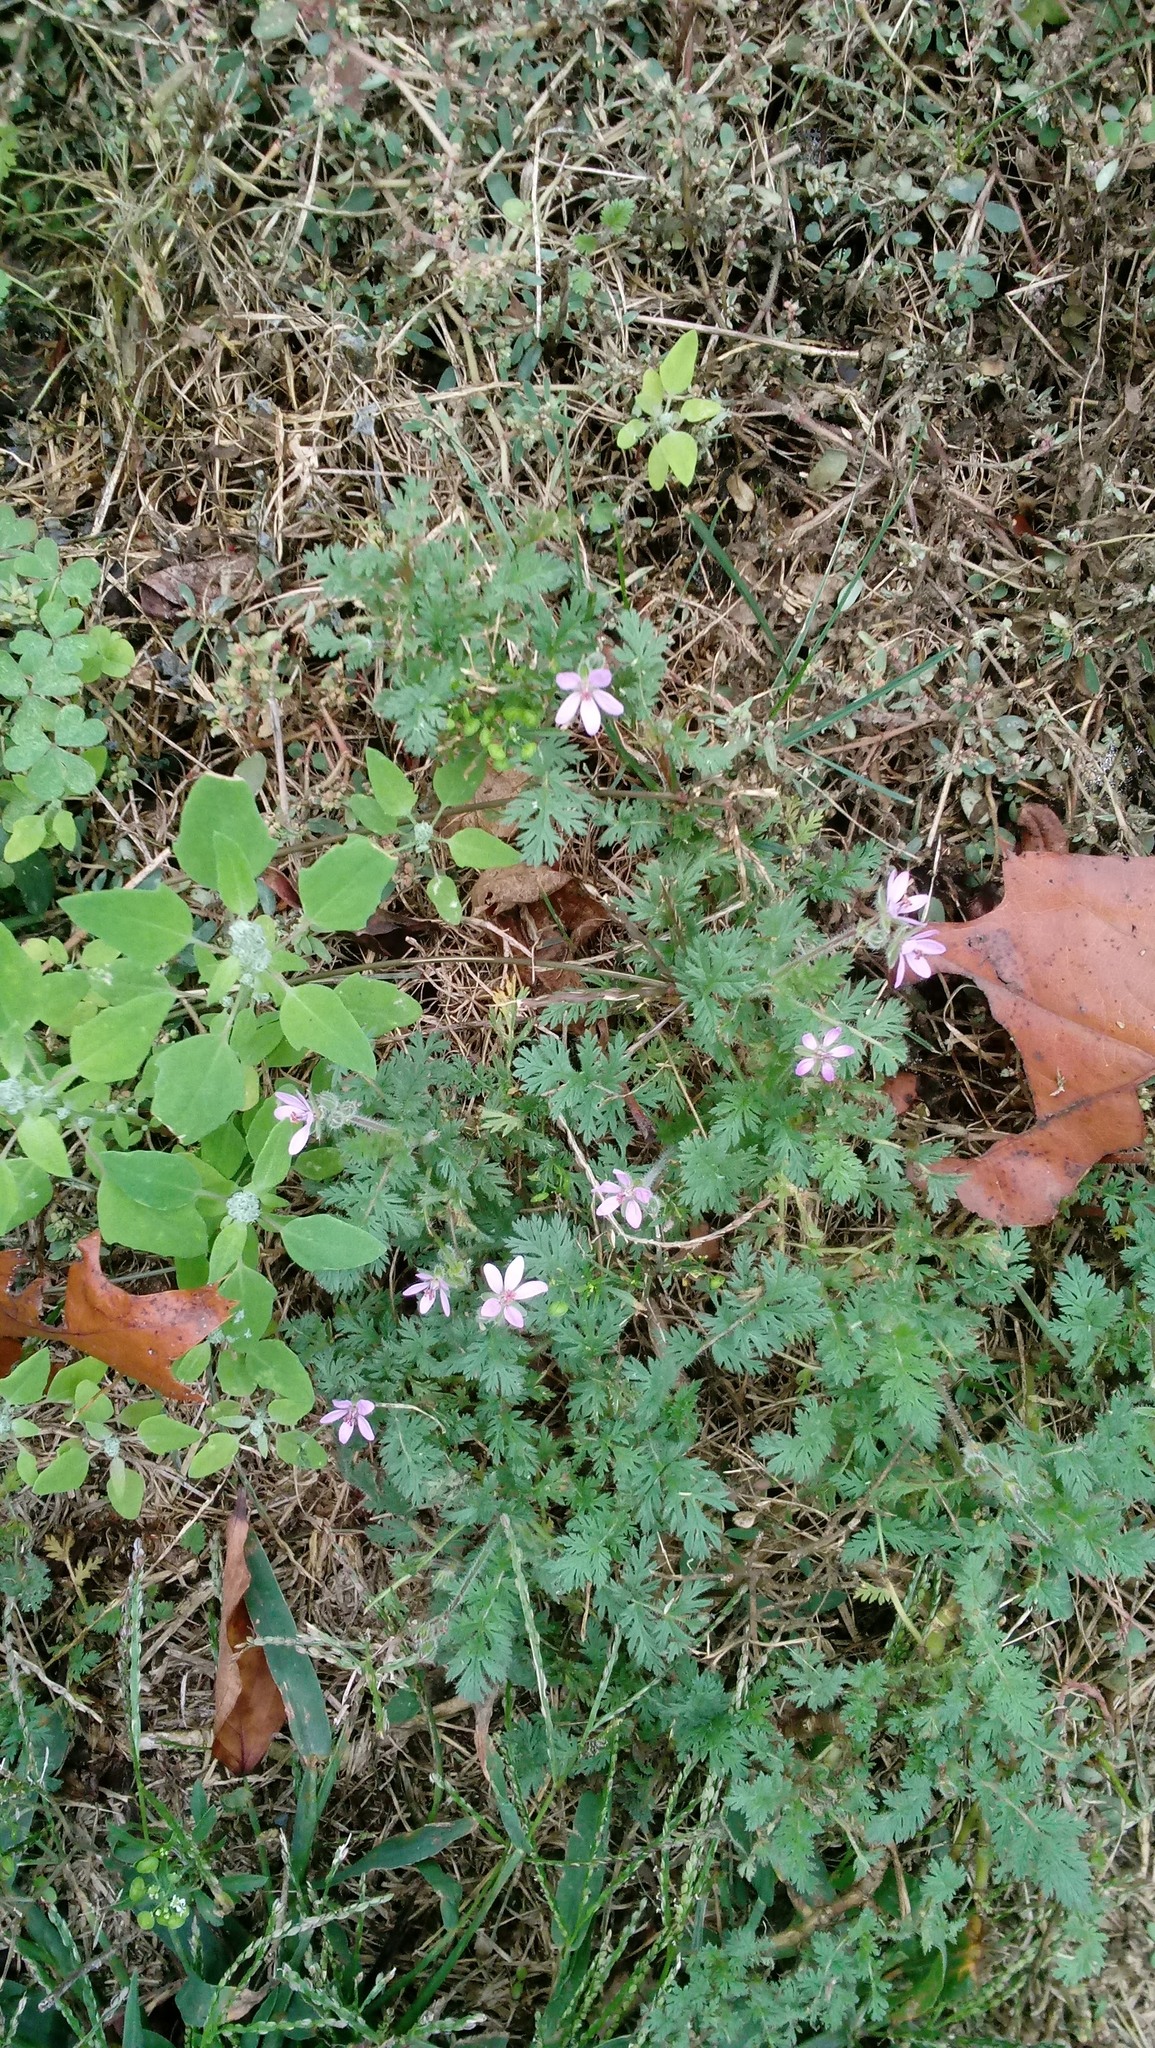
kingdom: Plantae
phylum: Tracheophyta
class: Magnoliopsida
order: Geraniales
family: Geraniaceae
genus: Erodium
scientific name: Erodium cicutarium
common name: Common stork's-bill
